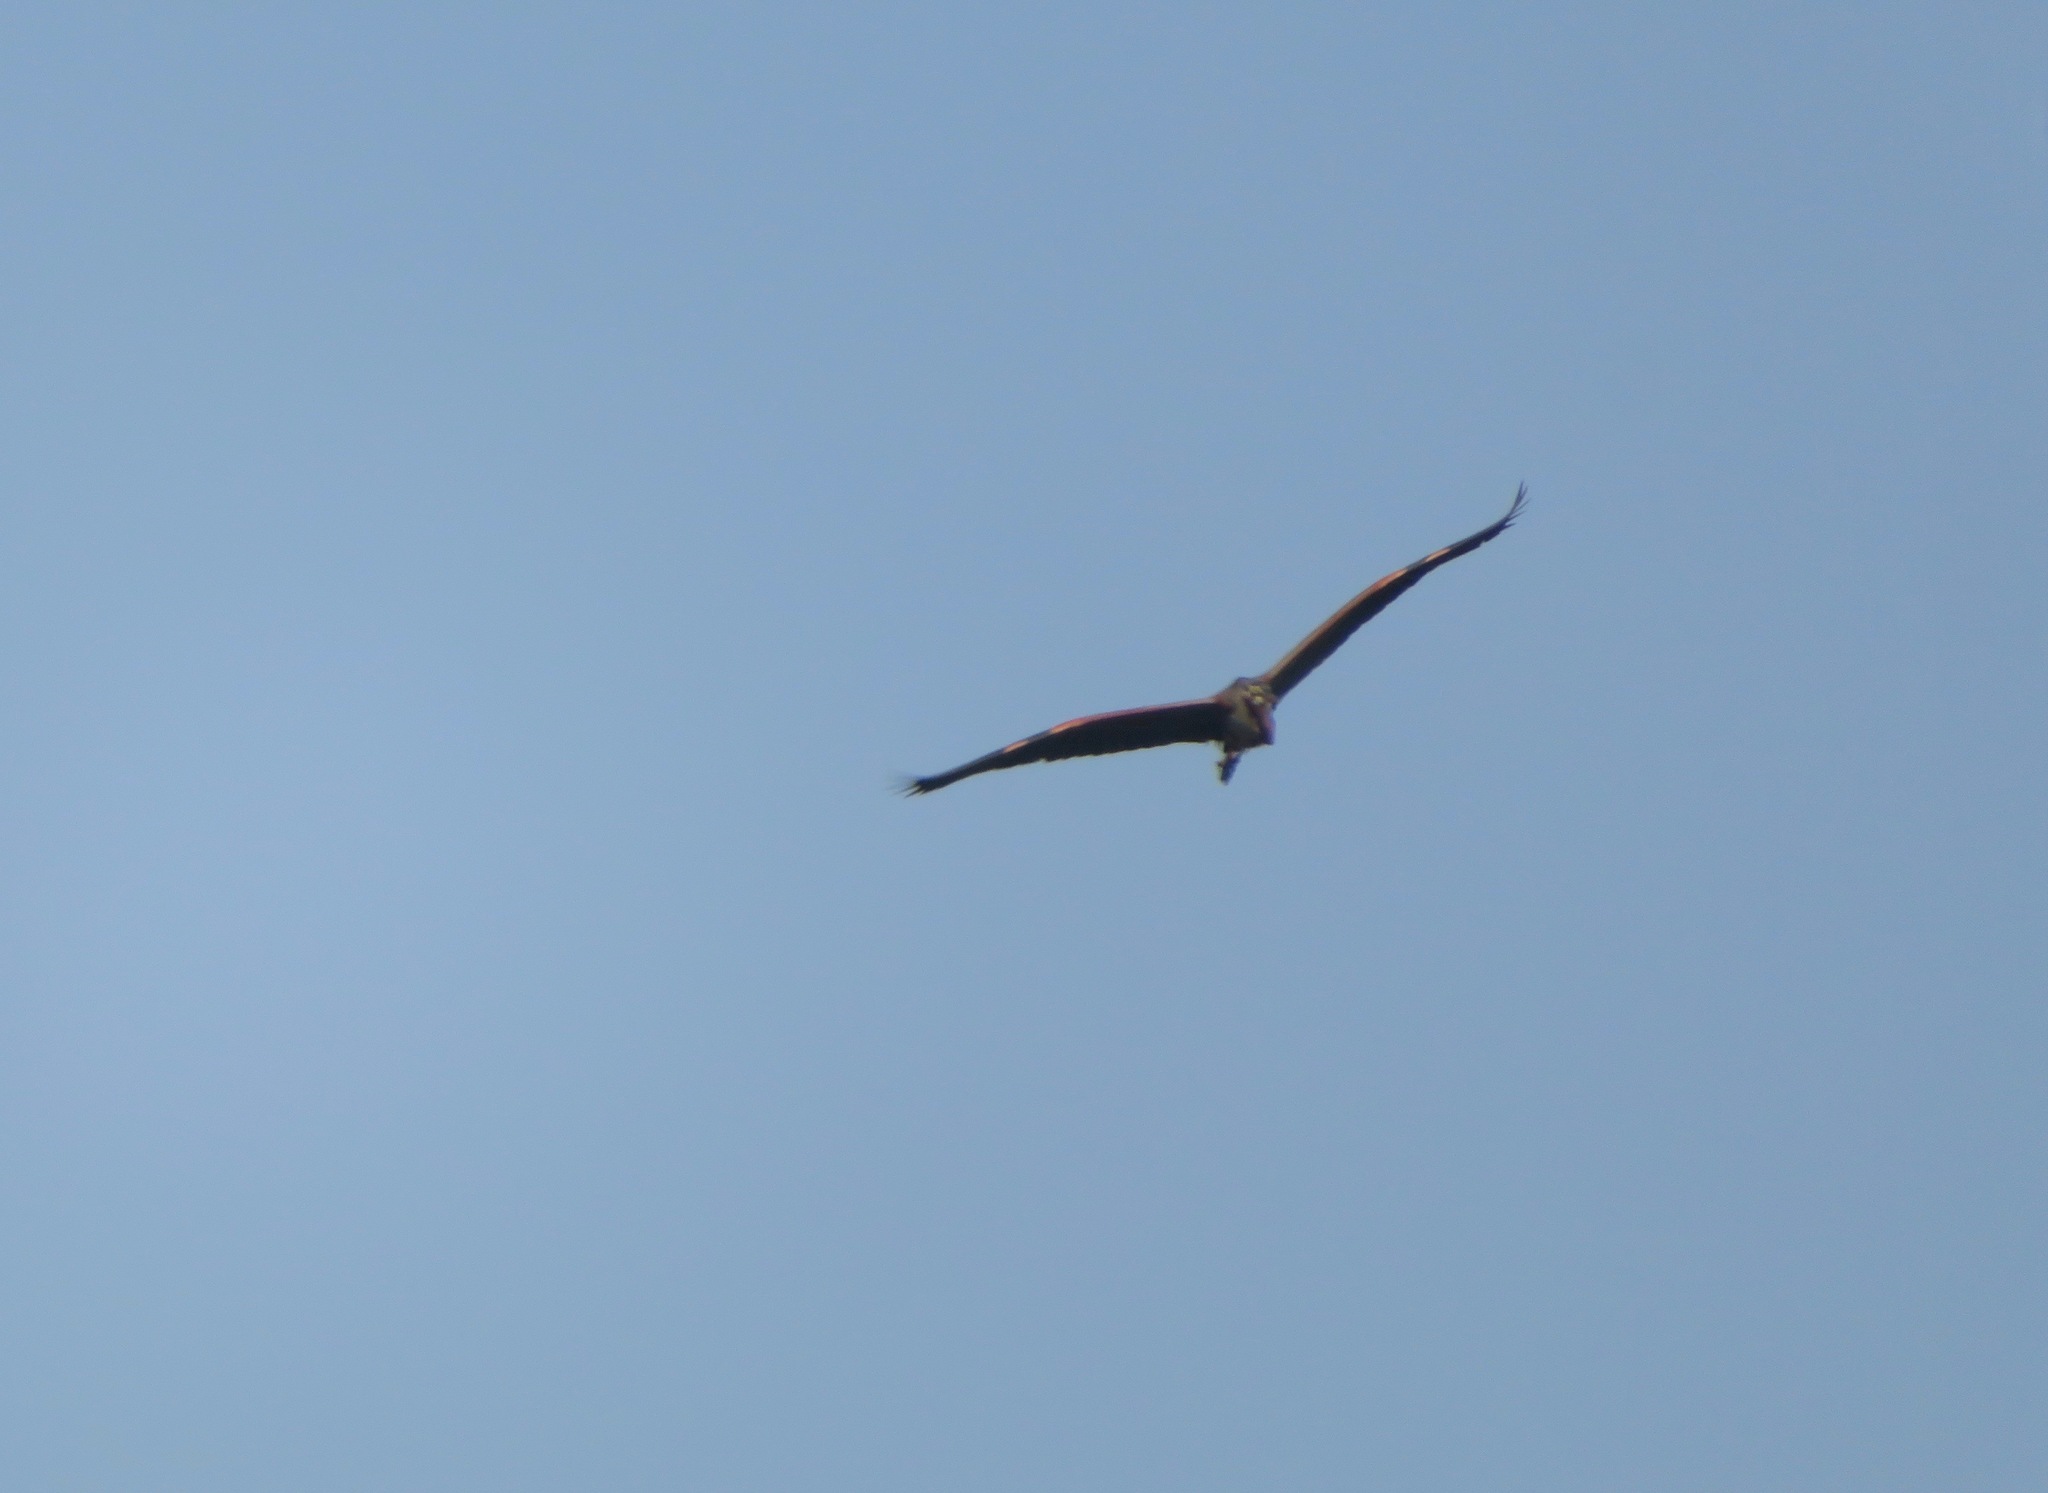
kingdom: Animalia
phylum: Chordata
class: Aves
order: Pelecaniformes
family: Ardeidae
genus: Ardea
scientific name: Ardea purpurea
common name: Purple heron
